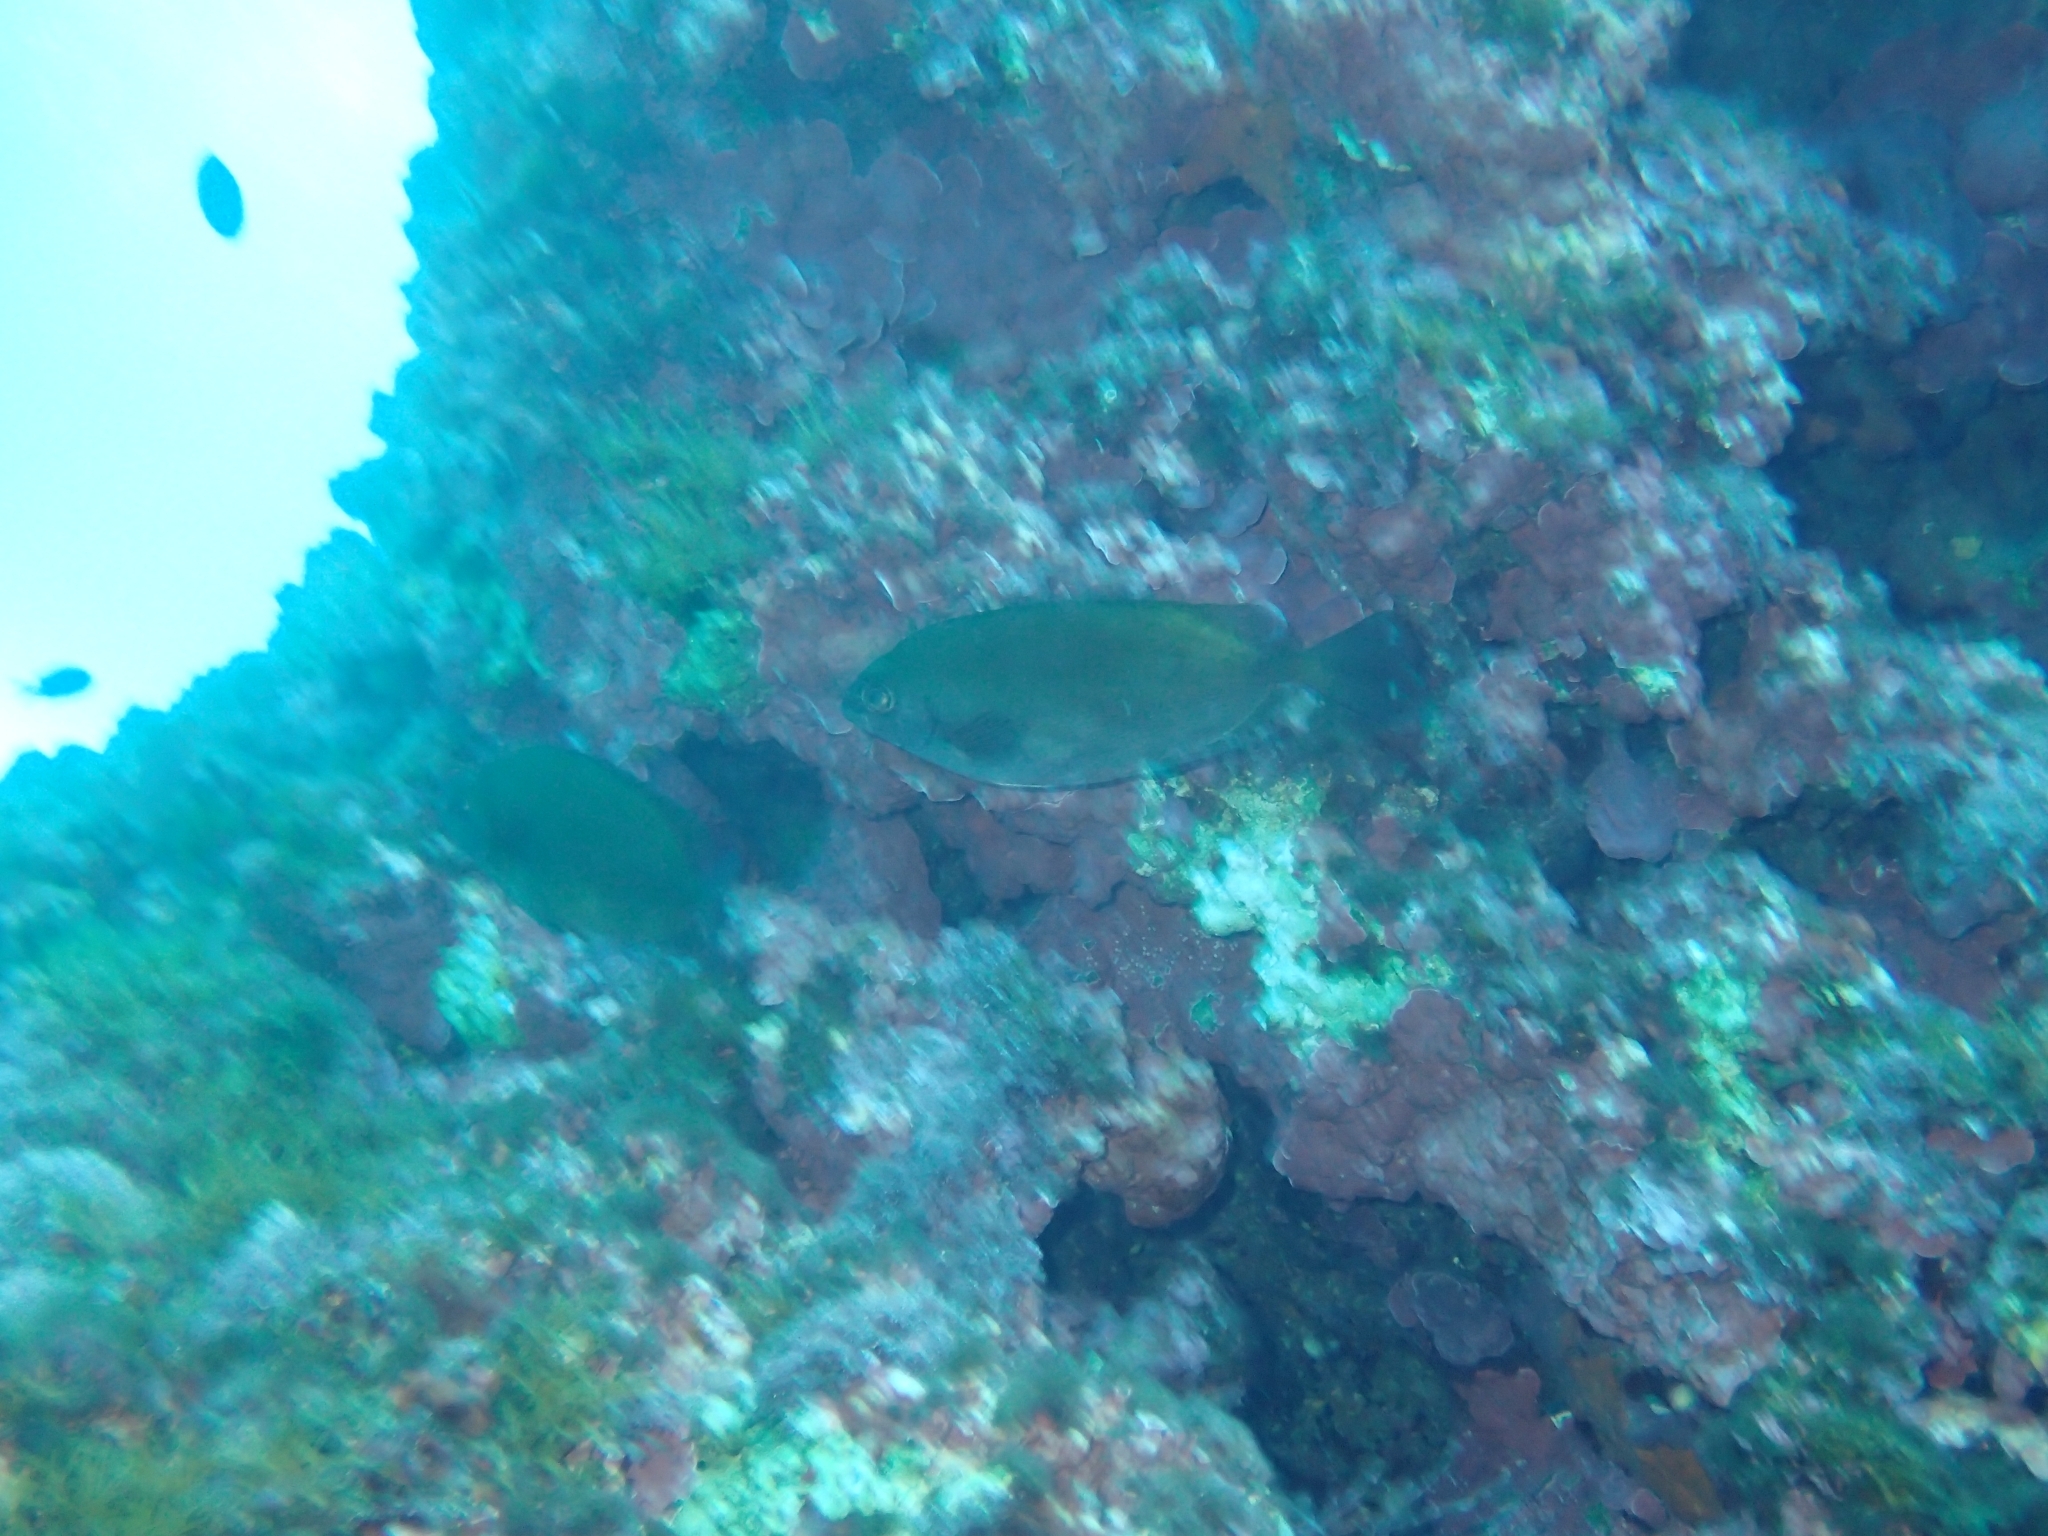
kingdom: Animalia
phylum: Chordata
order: Perciformes
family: Siganidae
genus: Siganus
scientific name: Siganus luridus
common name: Dusky spinefoot
